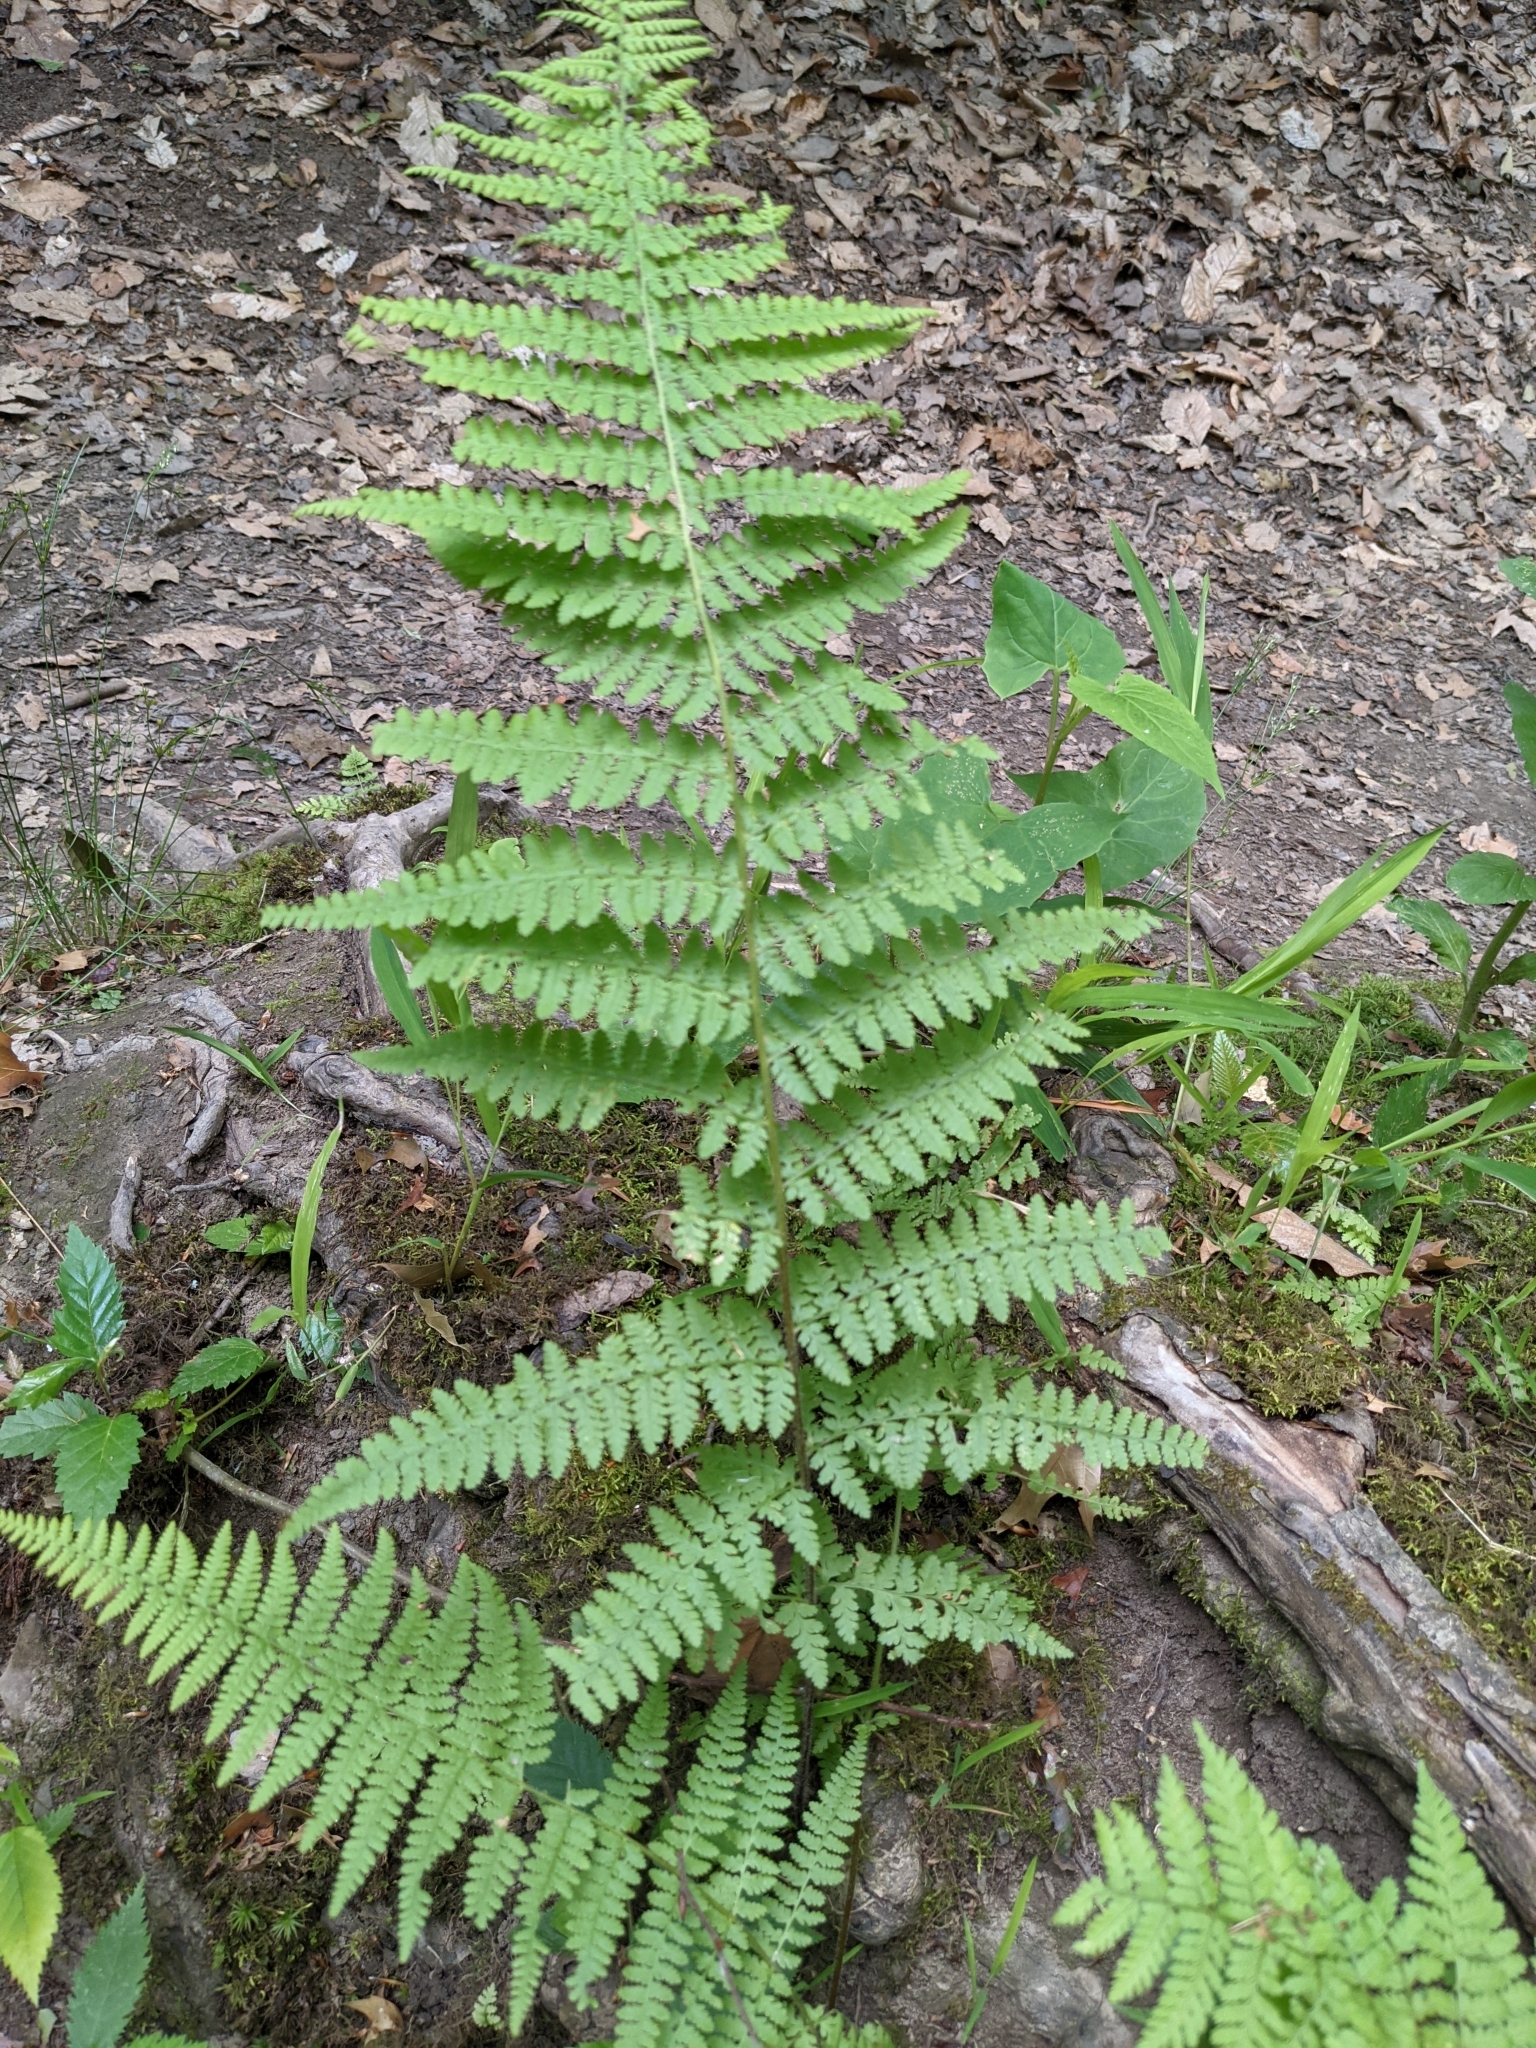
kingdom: Plantae
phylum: Tracheophyta
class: Polypodiopsida
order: Polypodiales
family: Dennstaedtiaceae
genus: Sitobolium
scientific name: Sitobolium punctilobum
